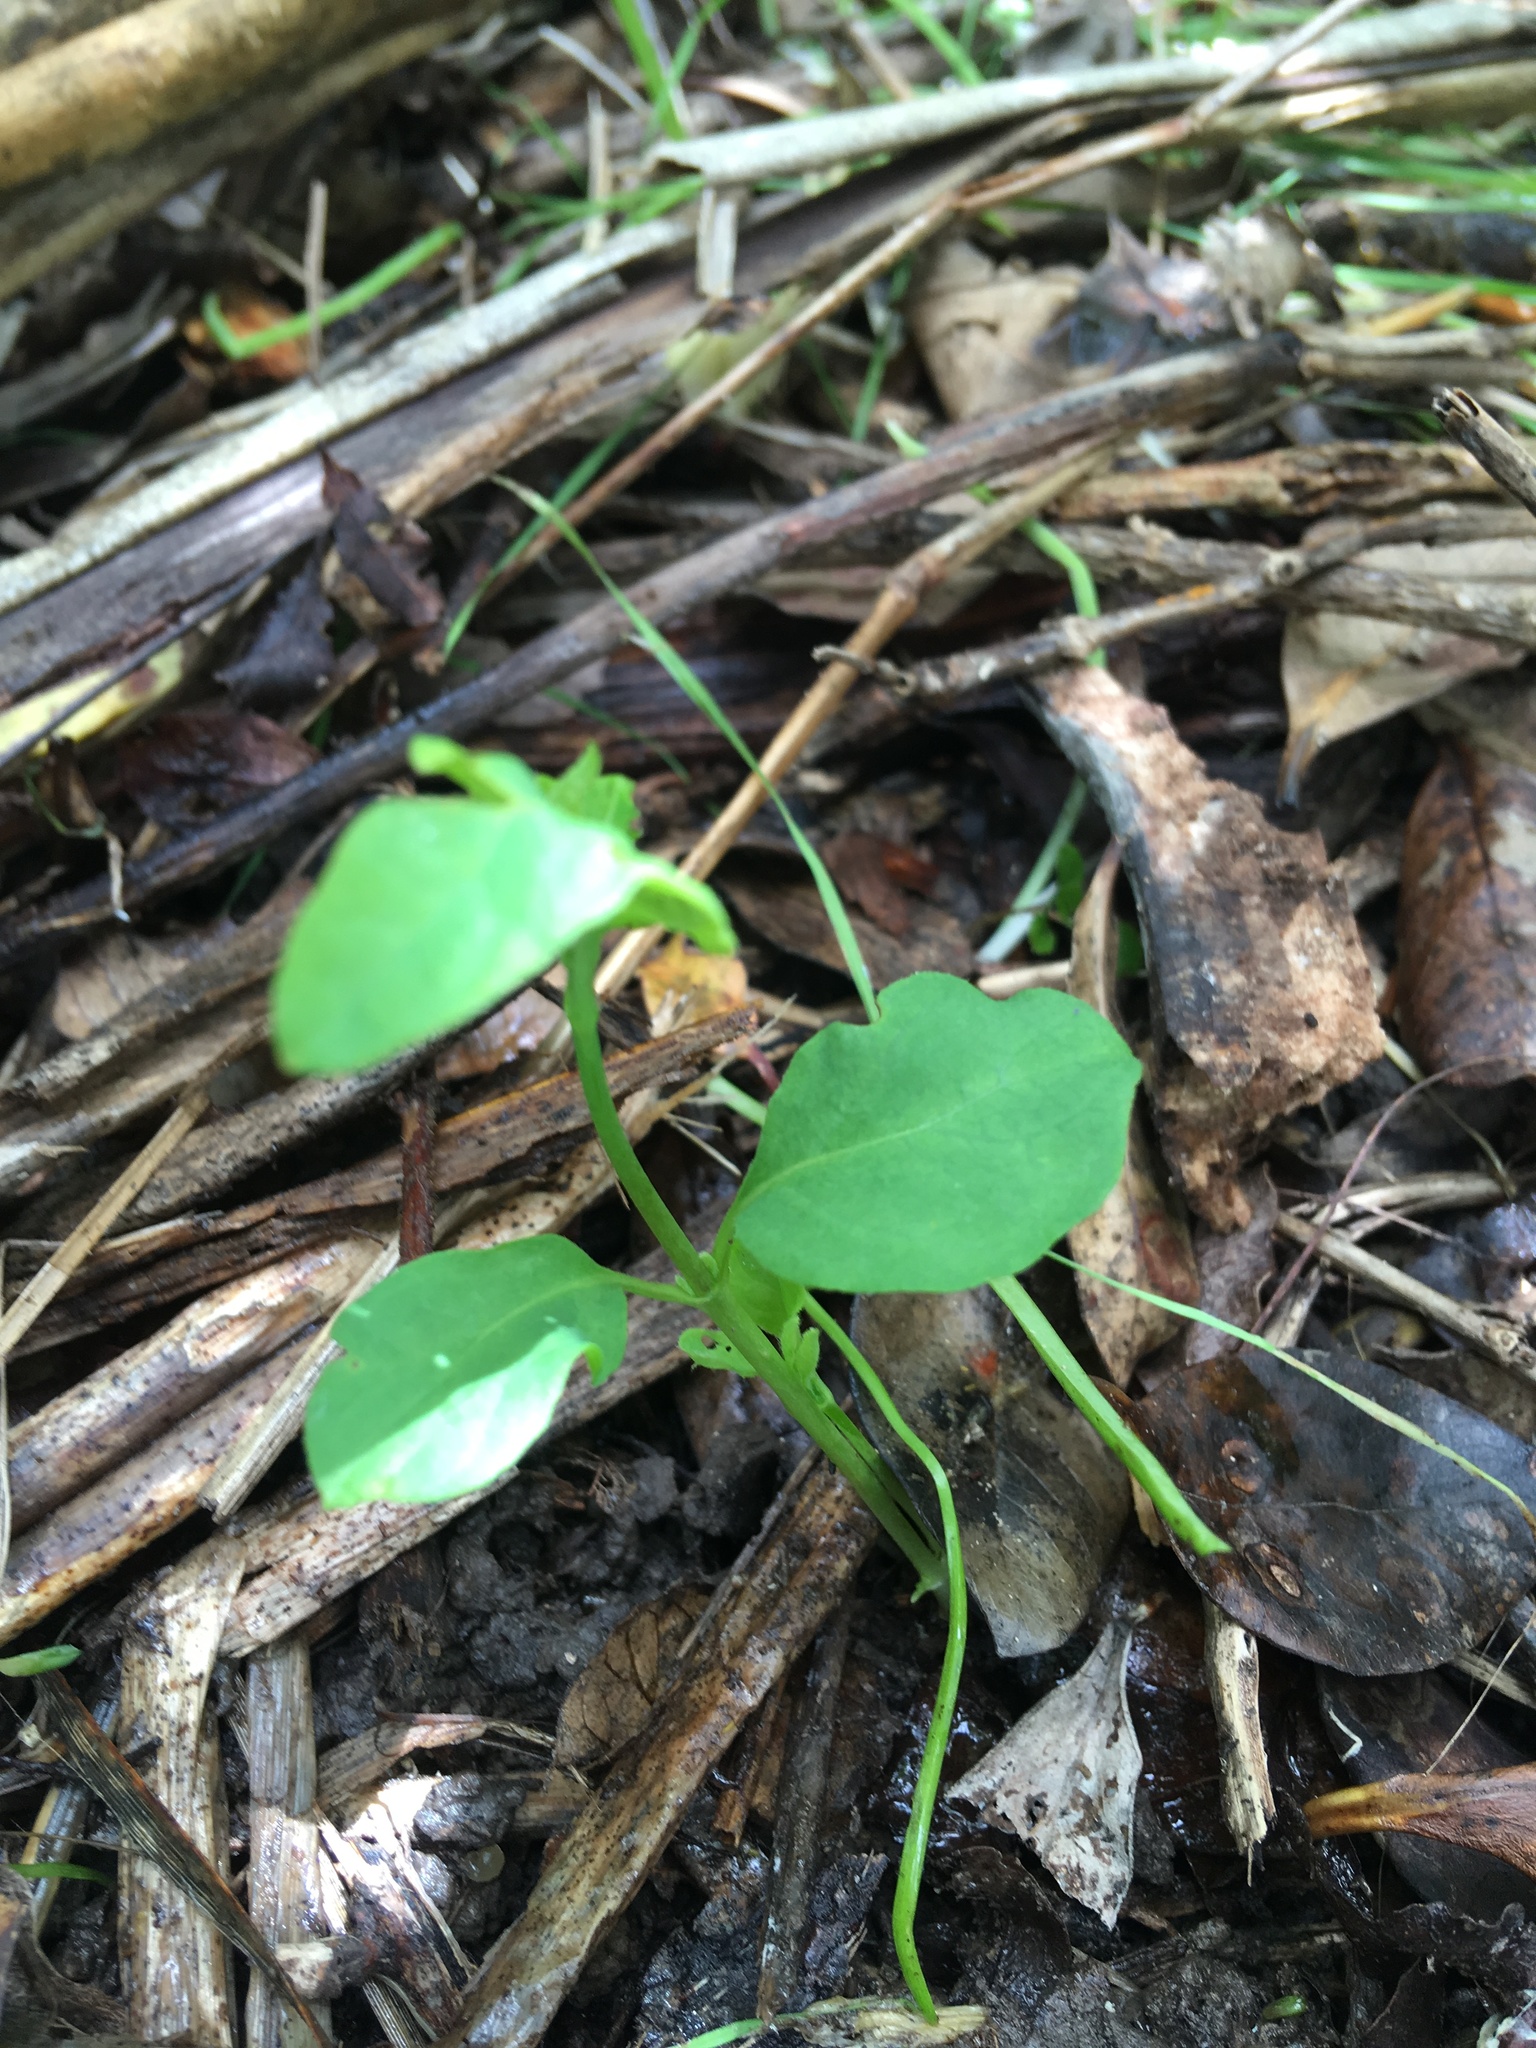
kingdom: Plantae
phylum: Tracheophyta
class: Magnoliopsida
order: Gentianales
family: Apocynaceae
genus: Araujia
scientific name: Araujia sericifera
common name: White bladderflower
